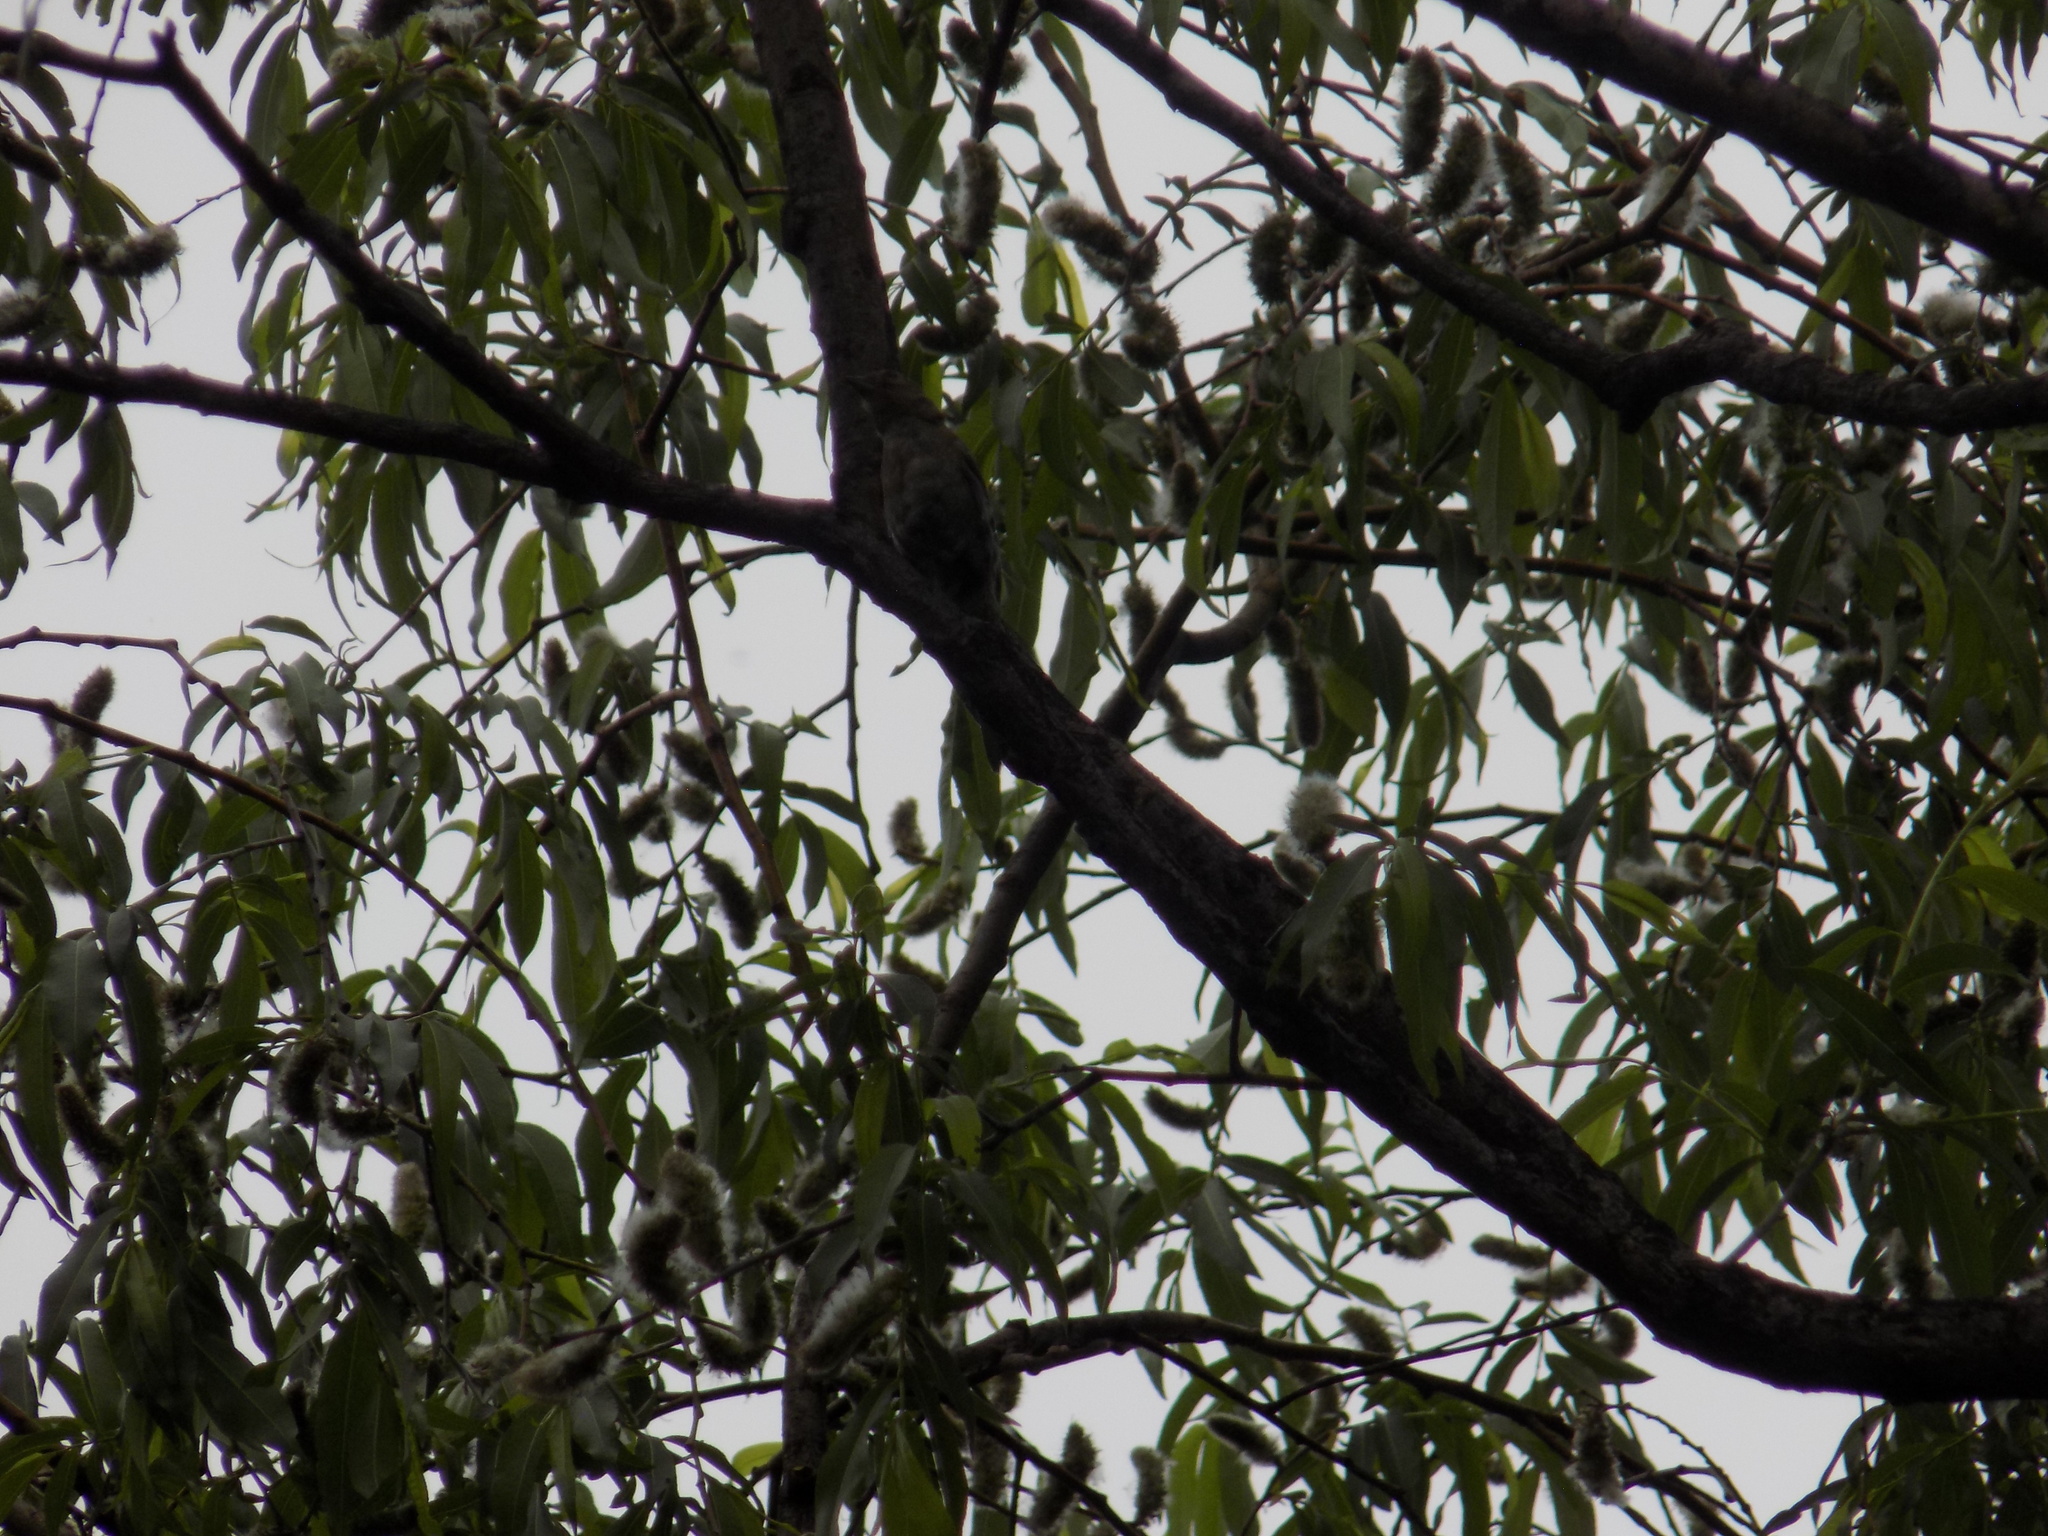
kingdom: Animalia
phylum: Chordata
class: Aves
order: Passeriformes
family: Fringillidae
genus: Fringilla
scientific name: Fringilla coelebs
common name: Common chaffinch
